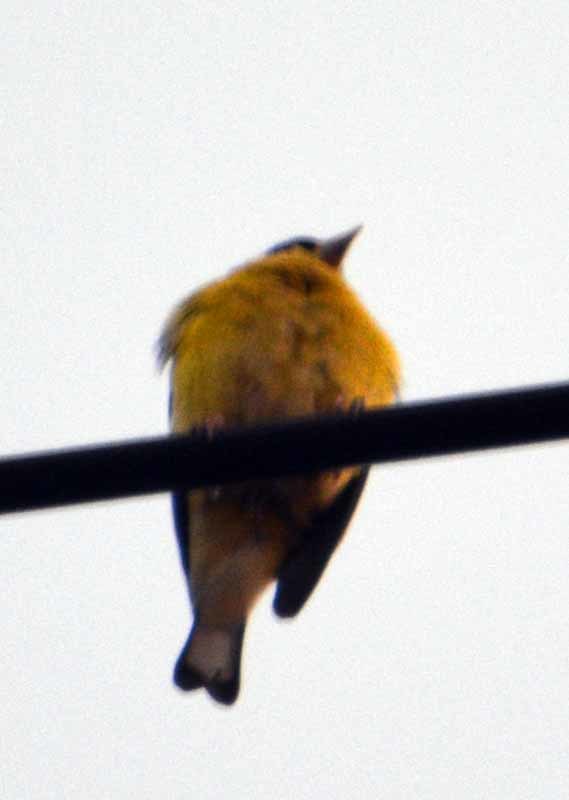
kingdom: Animalia
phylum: Chordata
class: Aves
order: Passeriformes
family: Fringillidae
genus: Spinus
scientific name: Spinus psaltria
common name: Lesser goldfinch
